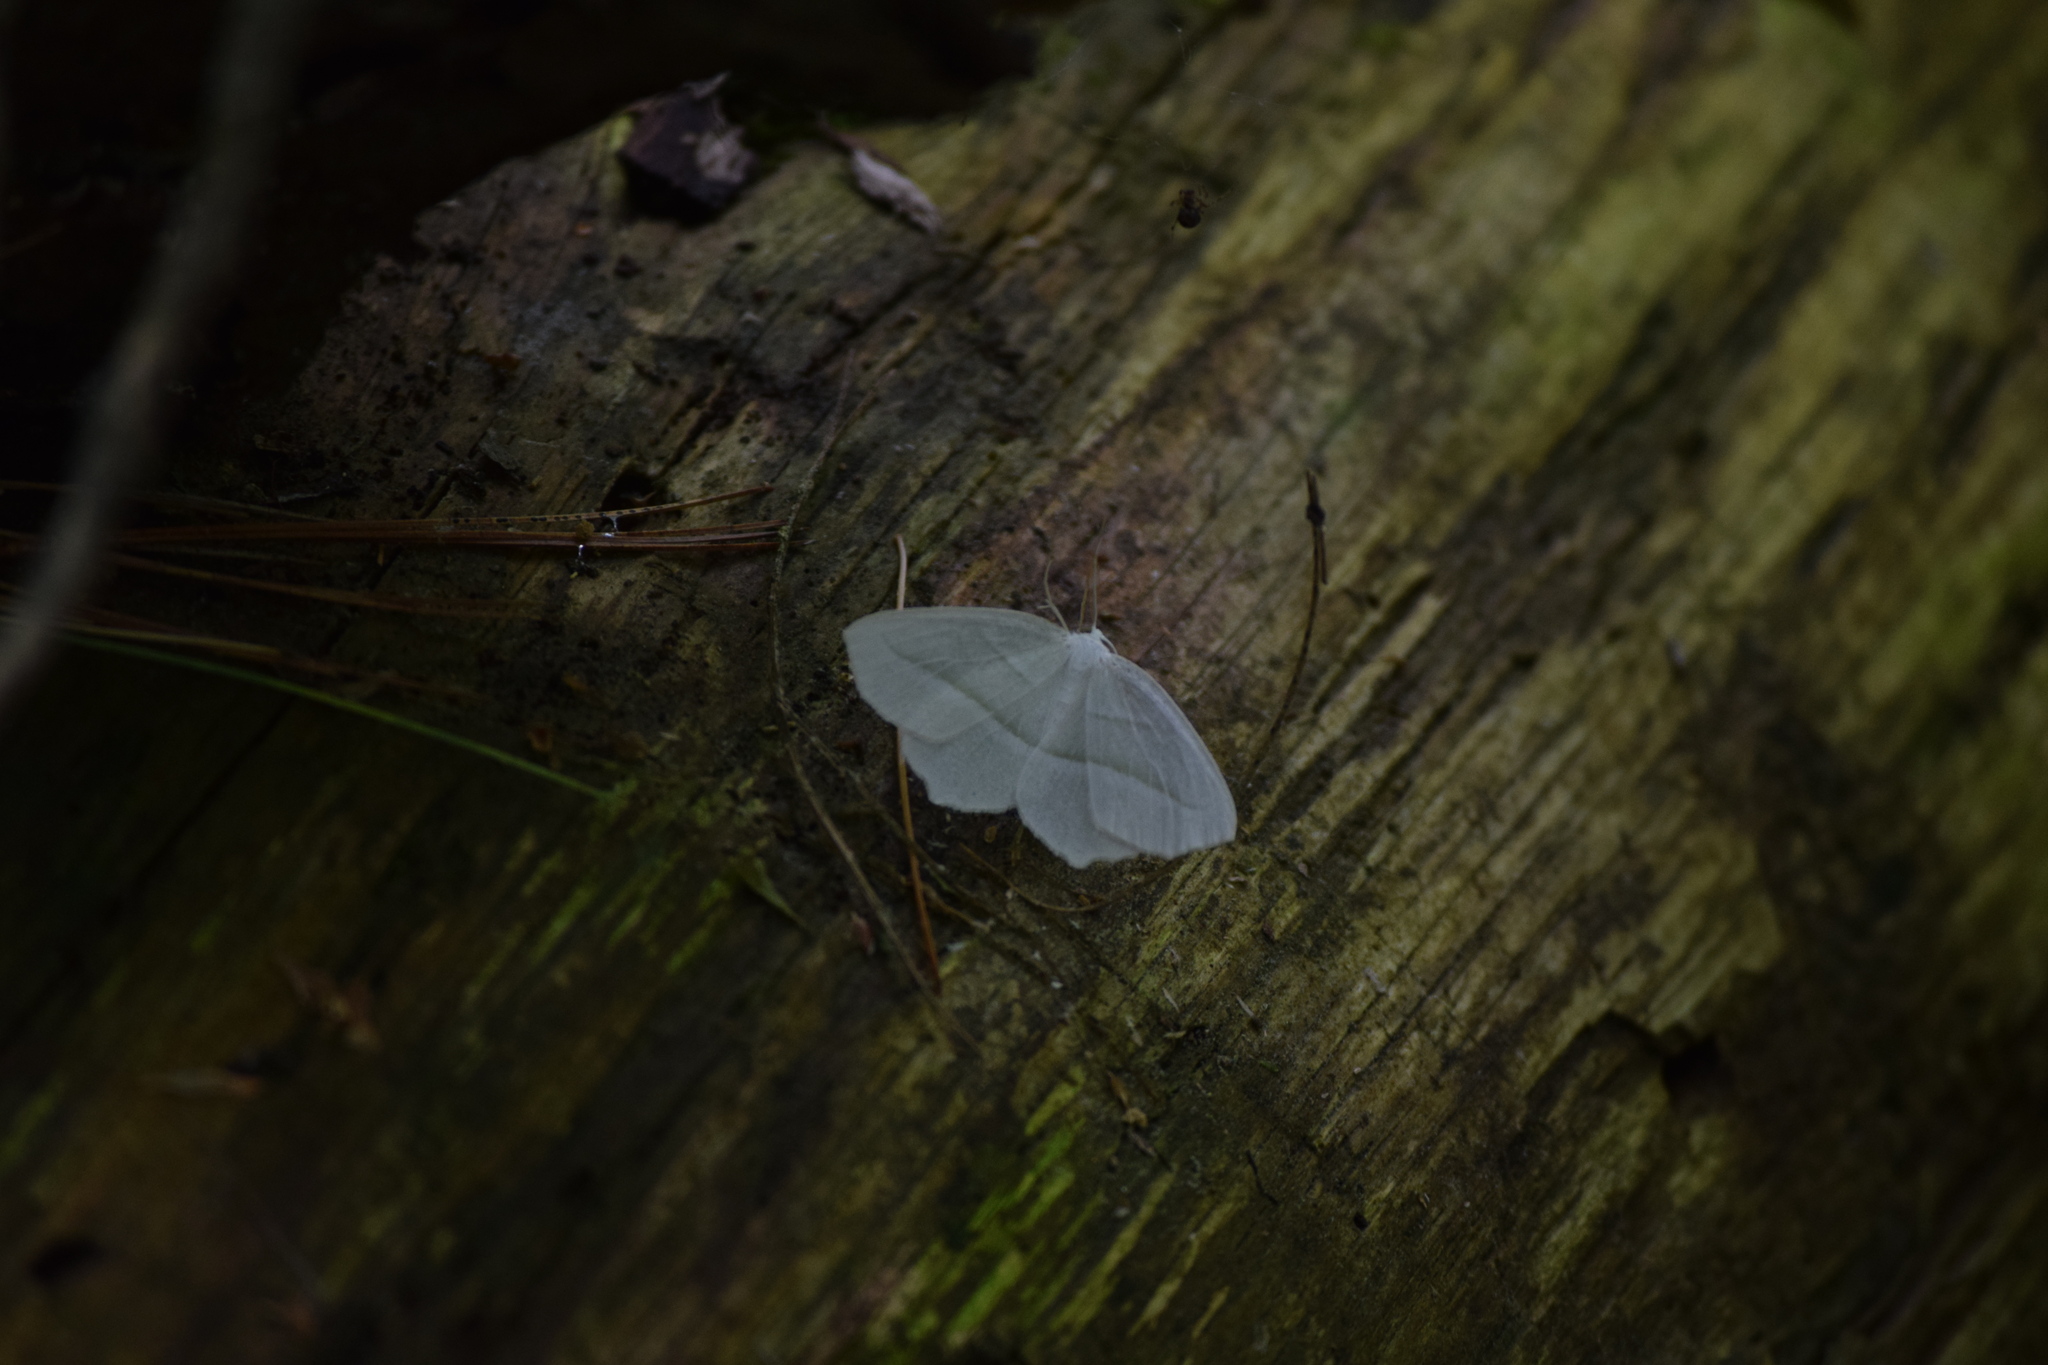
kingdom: Animalia
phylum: Arthropoda
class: Insecta
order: Lepidoptera
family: Geometridae
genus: Campaea
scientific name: Campaea perlata
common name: Fringed looper
